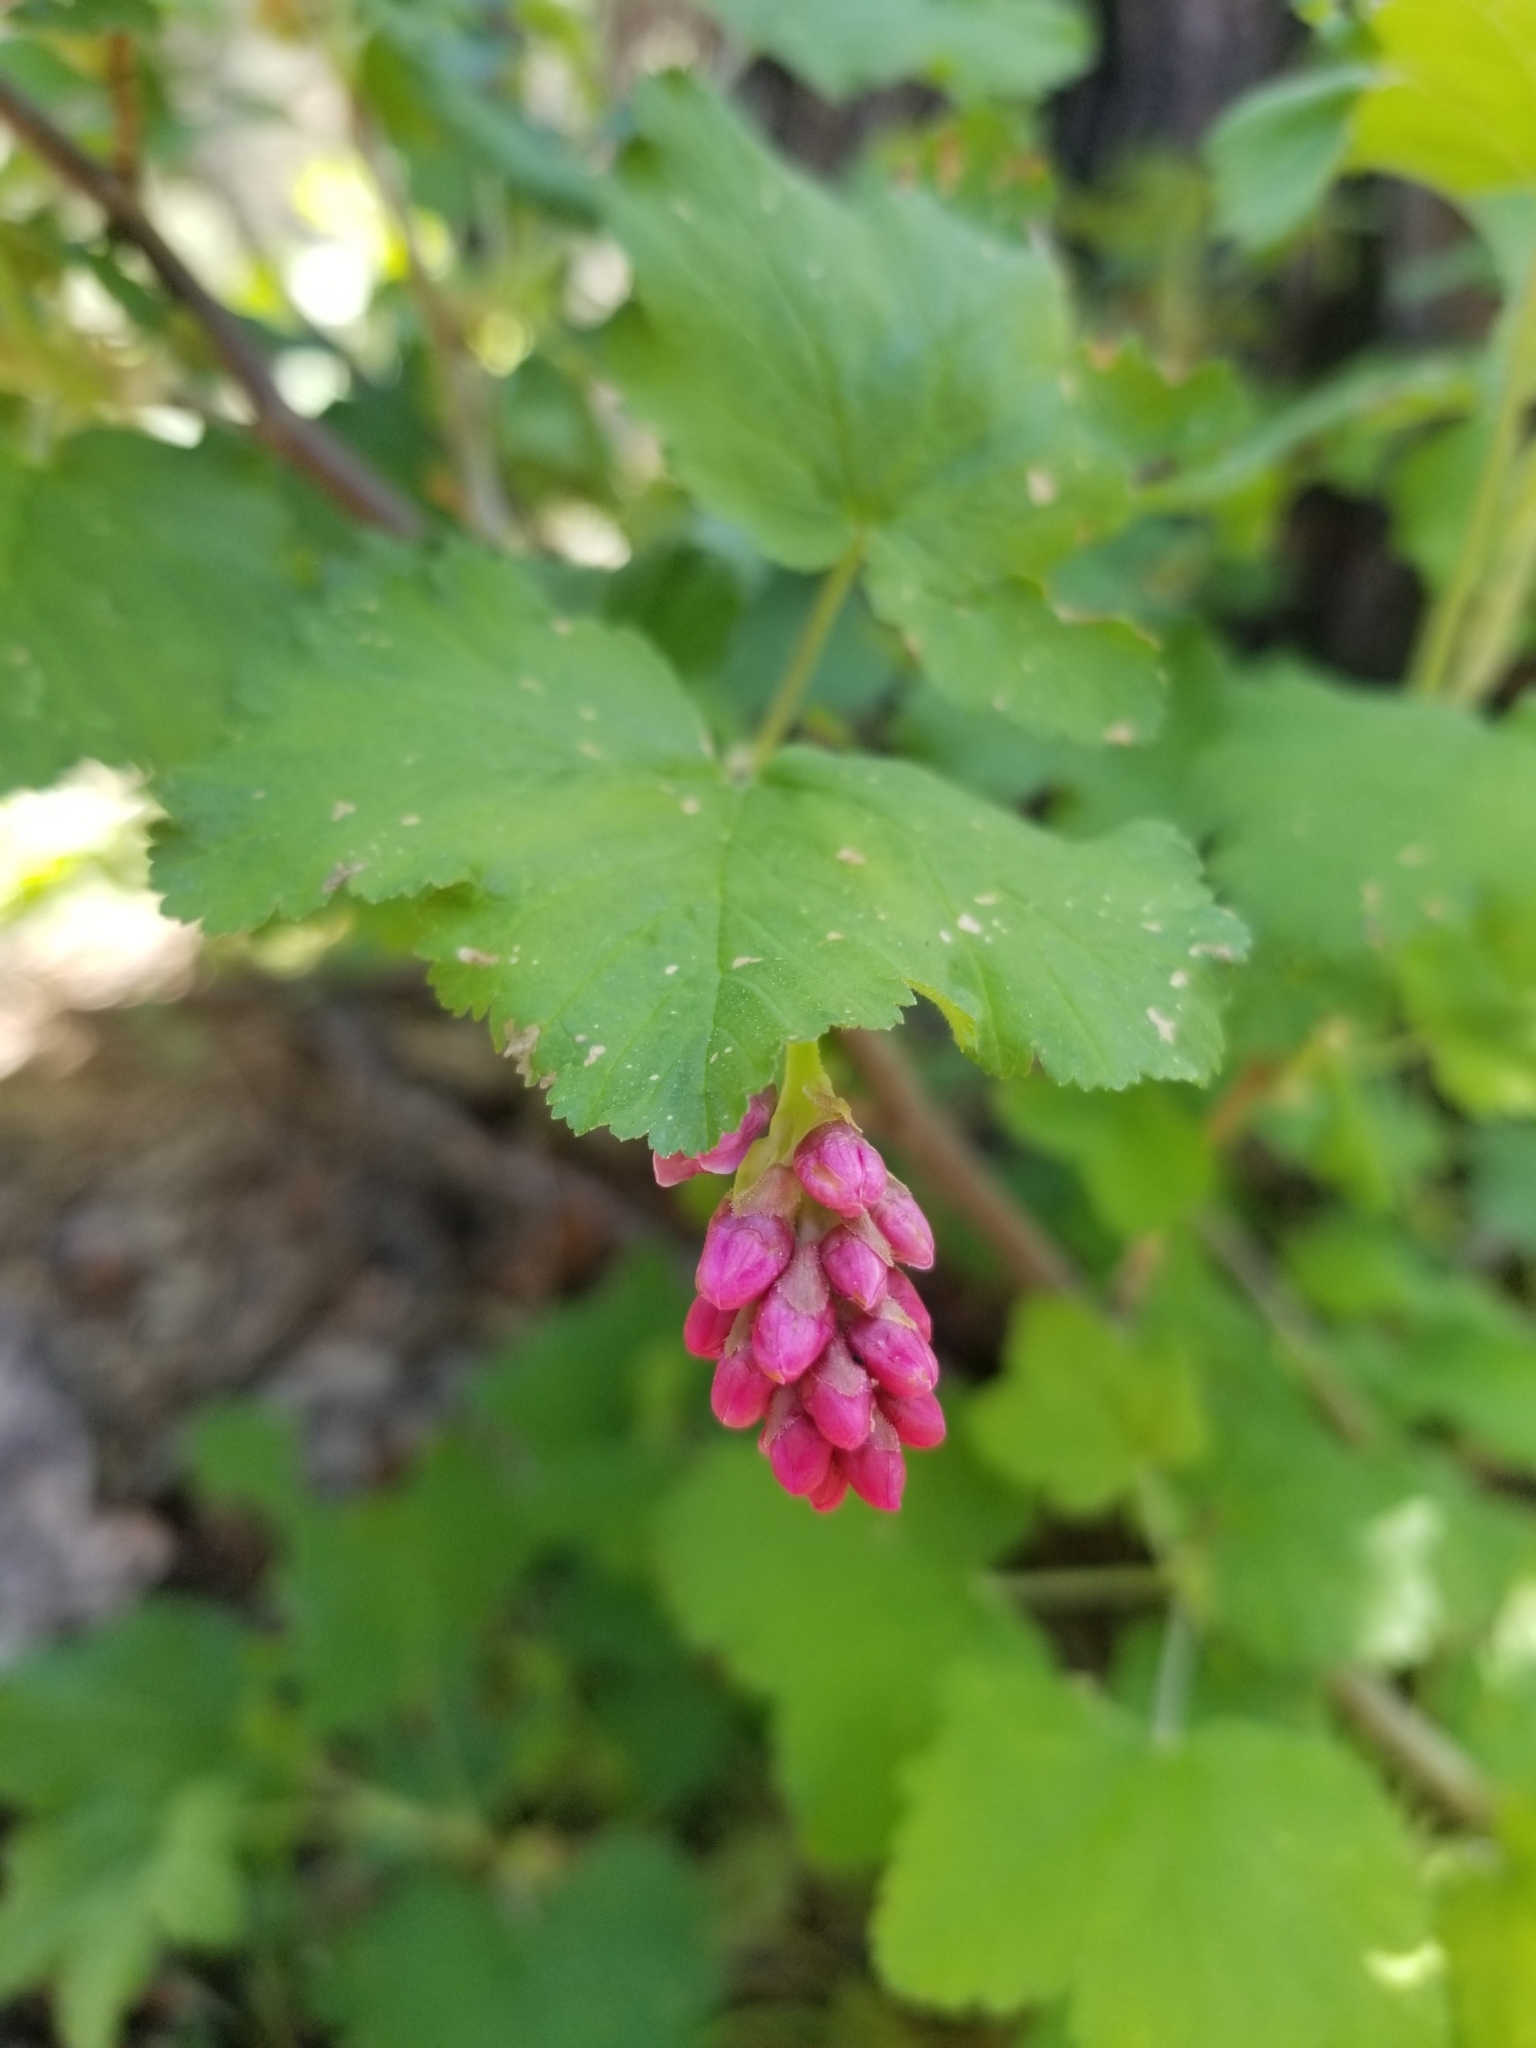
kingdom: Plantae
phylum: Tracheophyta
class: Magnoliopsida
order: Saxifragales
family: Grossulariaceae
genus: Ribes
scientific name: Ribes nevadense
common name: Mountain pink currant
